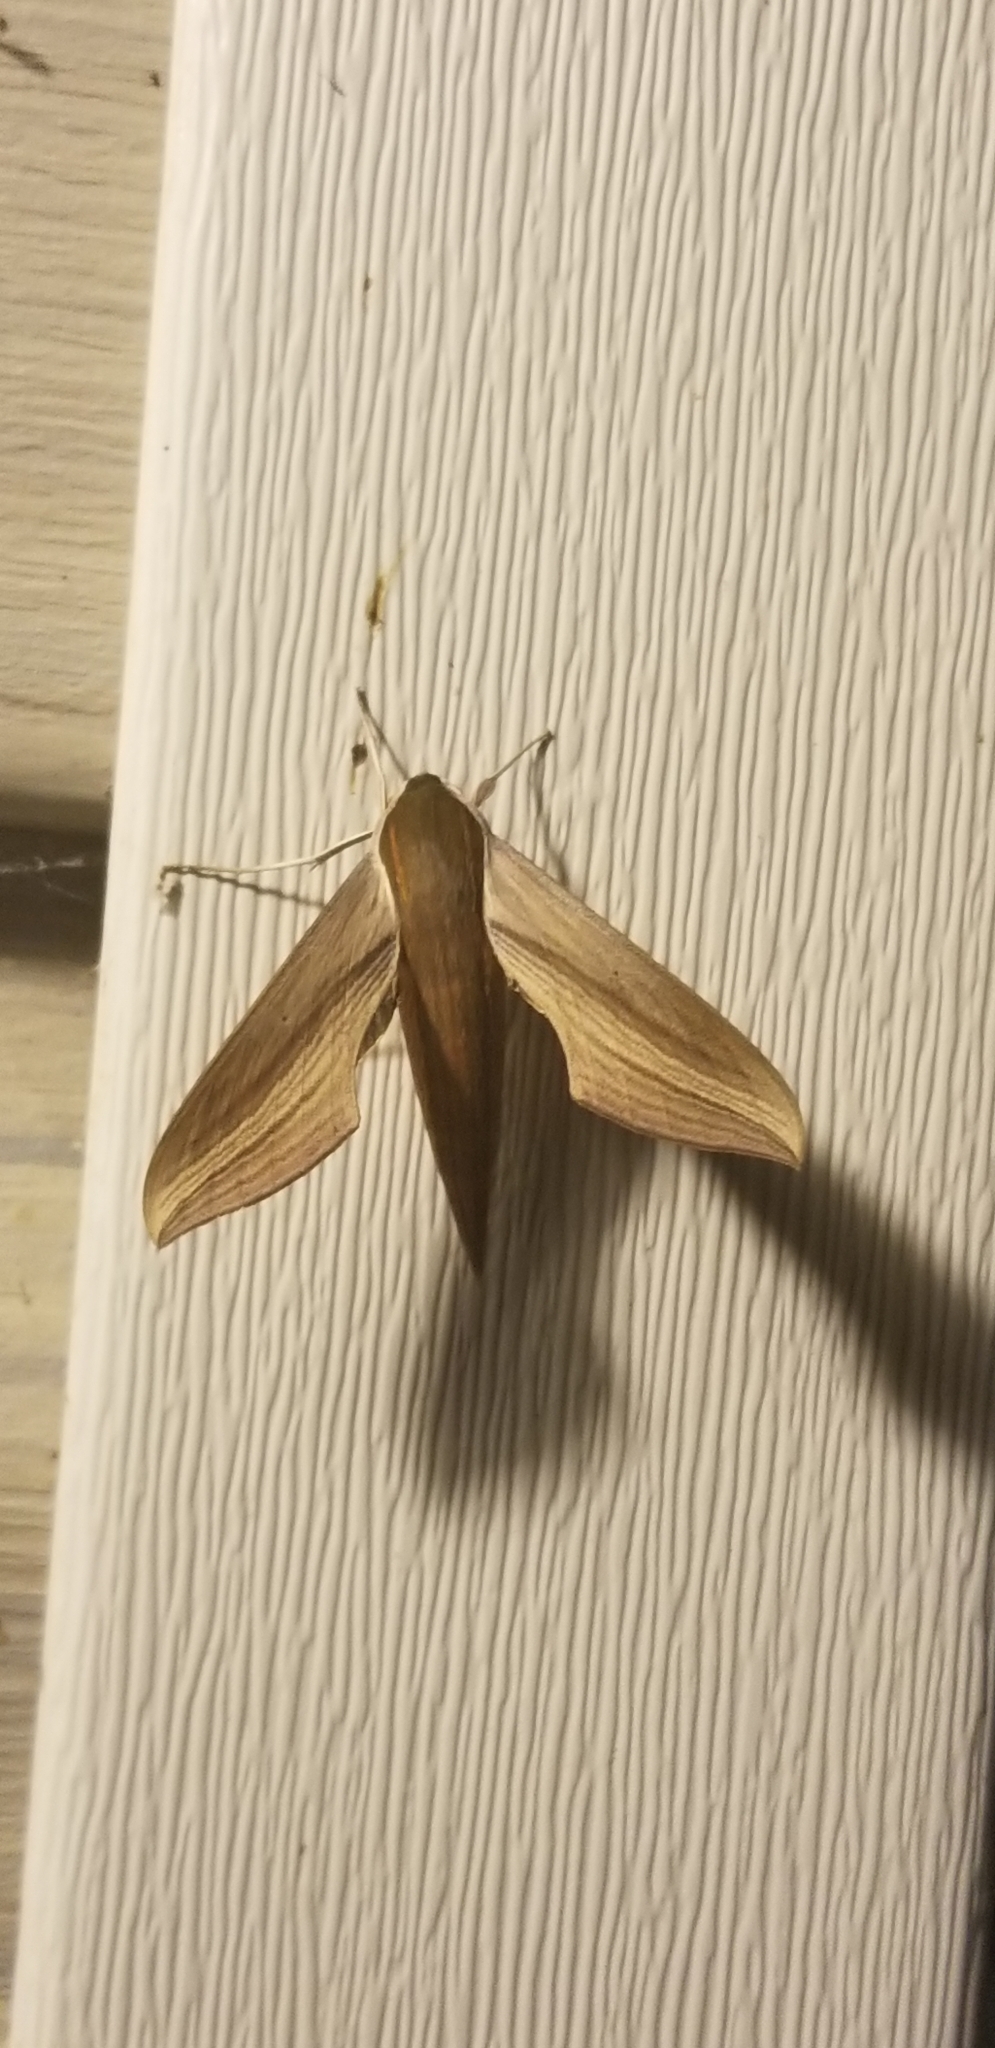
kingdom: Animalia
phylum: Arthropoda
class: Insecta
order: Lepidoptera
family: Sphingidae
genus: Xylophanes
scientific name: Xylophanes tersa
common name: Tersa sphinx
